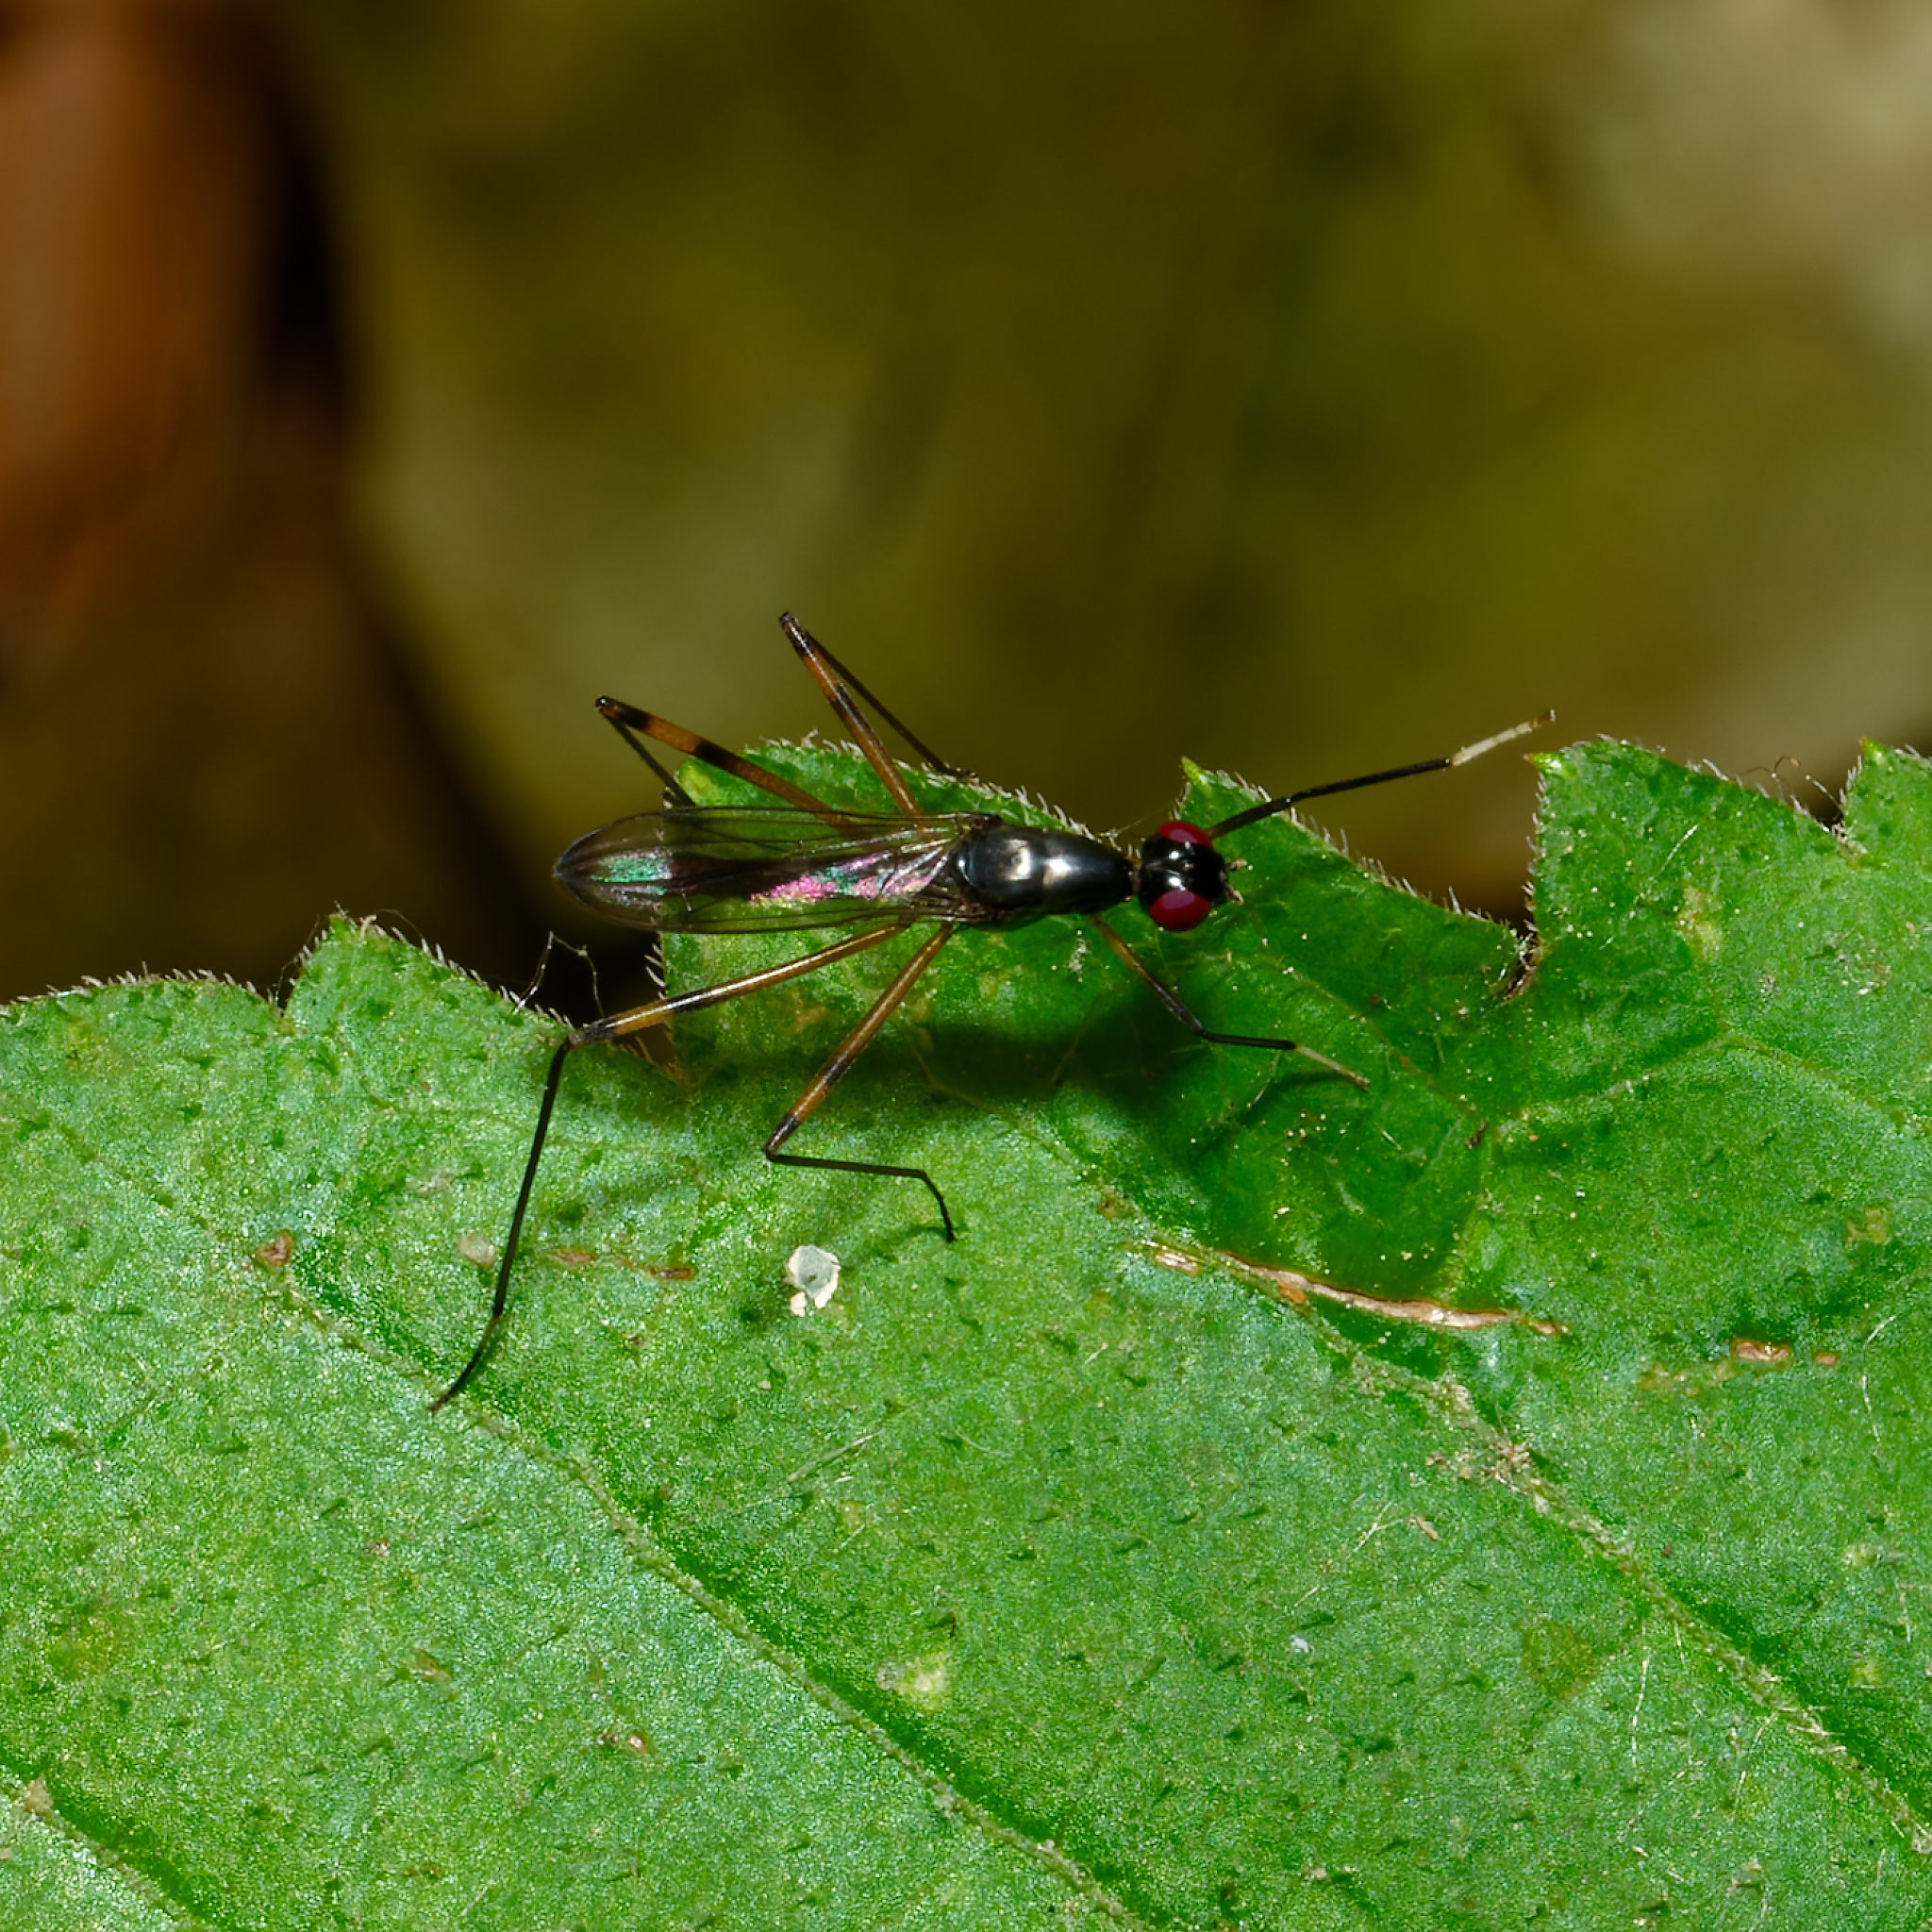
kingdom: Animalia
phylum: Arthropoda
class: Insecta
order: Diptera
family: Micropezidae
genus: Rainieria
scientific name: Rainieria antennaepes
